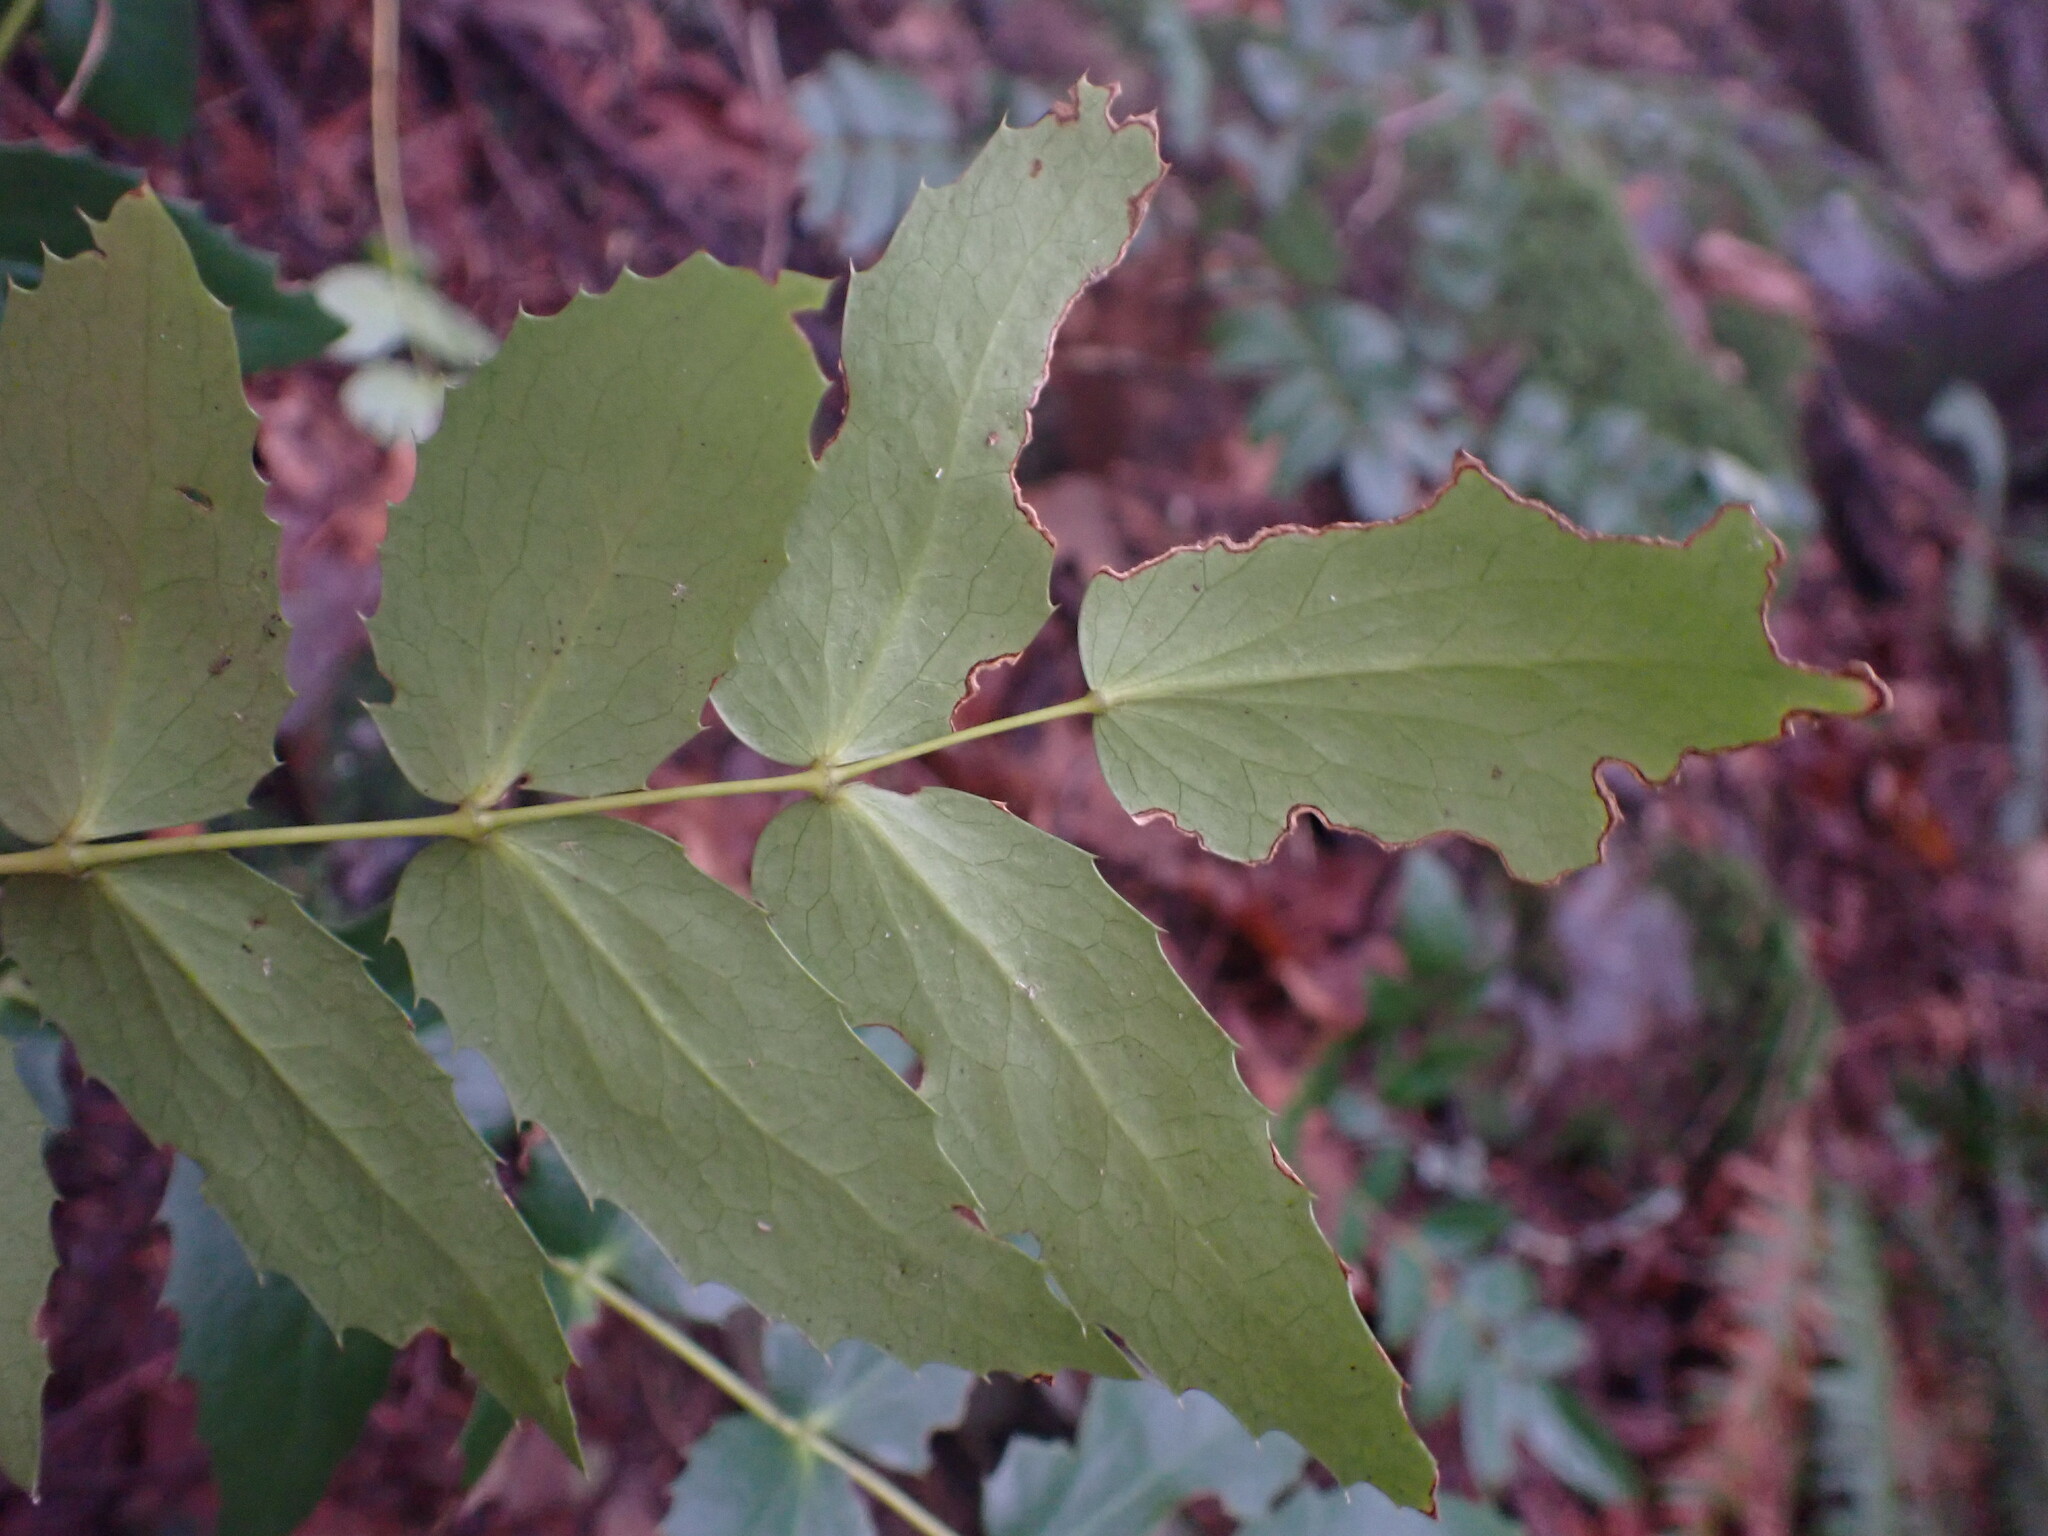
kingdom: Plantae
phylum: Tracheophyta
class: Magnoliopsida
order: Ranunculales
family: Berberidaceae
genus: Mahonia
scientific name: Mahonia nervosa
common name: Cascade oregon-grape
